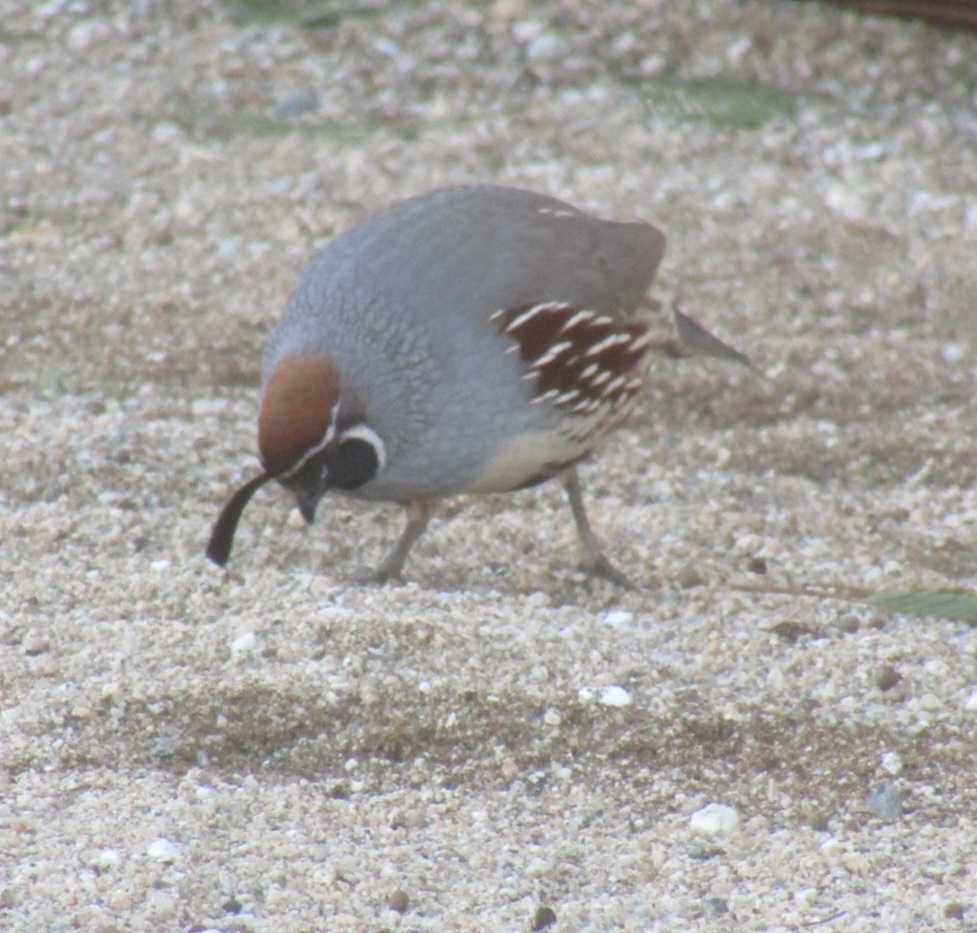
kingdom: Animalia
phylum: Chordata
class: Aves
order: Galliformes
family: Odontophoridae
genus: Callipepla
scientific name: Callipepla gambelii
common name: Gambel's quail
